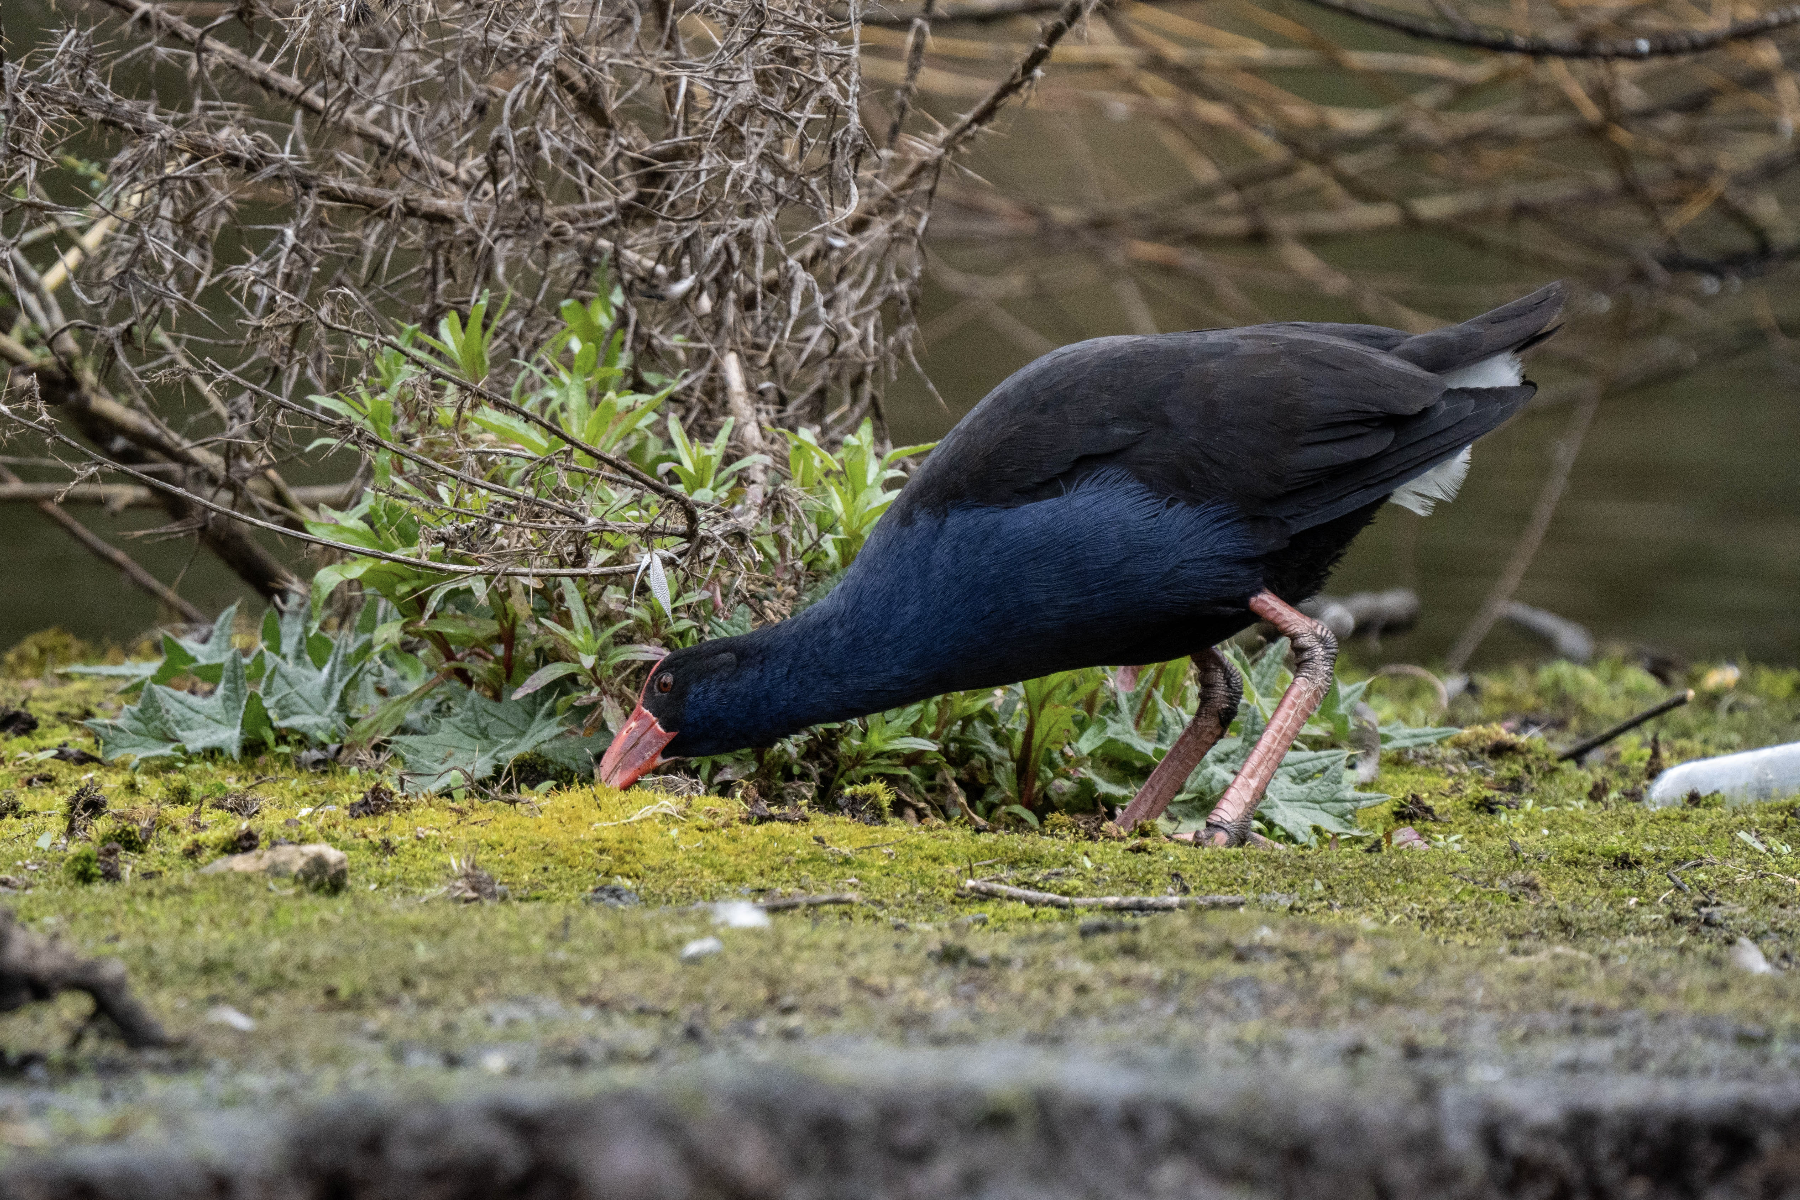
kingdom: Animalia
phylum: Chordata
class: Aves
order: Gruiformes
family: Rallidae
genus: Porphyrio
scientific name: Porphyrio melanotus
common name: Australasian swamphen
